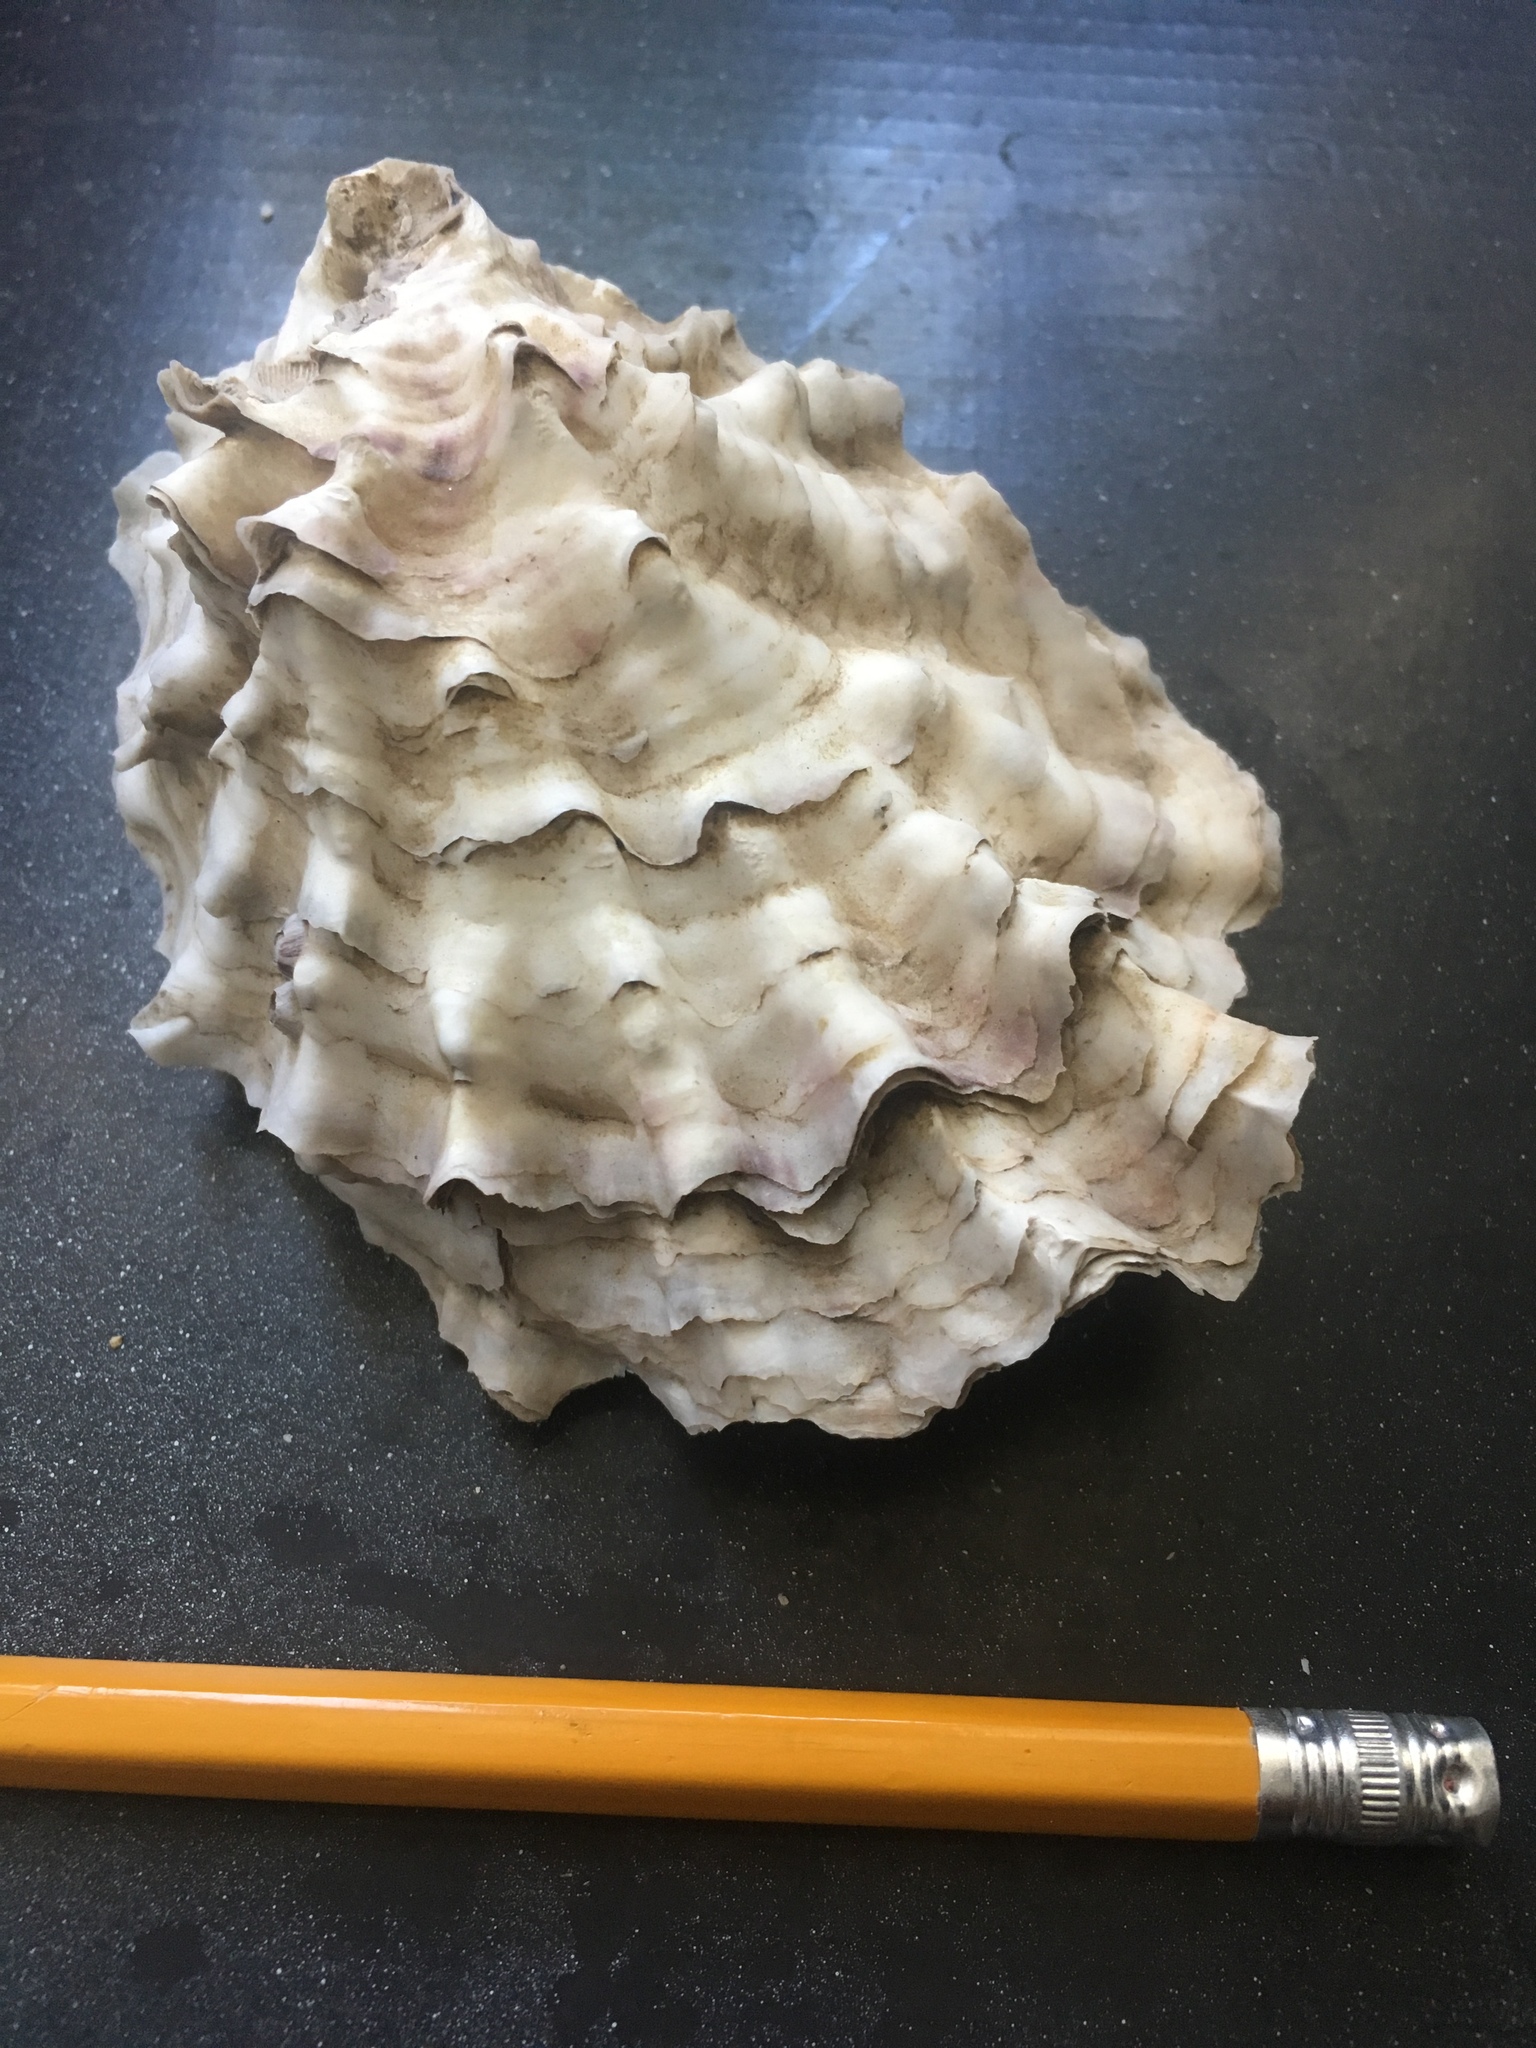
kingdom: Animalia
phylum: Mollusca
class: Bivalvia
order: Ostreida
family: Ostreidae
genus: Magallana
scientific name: Magallana gigas
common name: Pacific oyster
